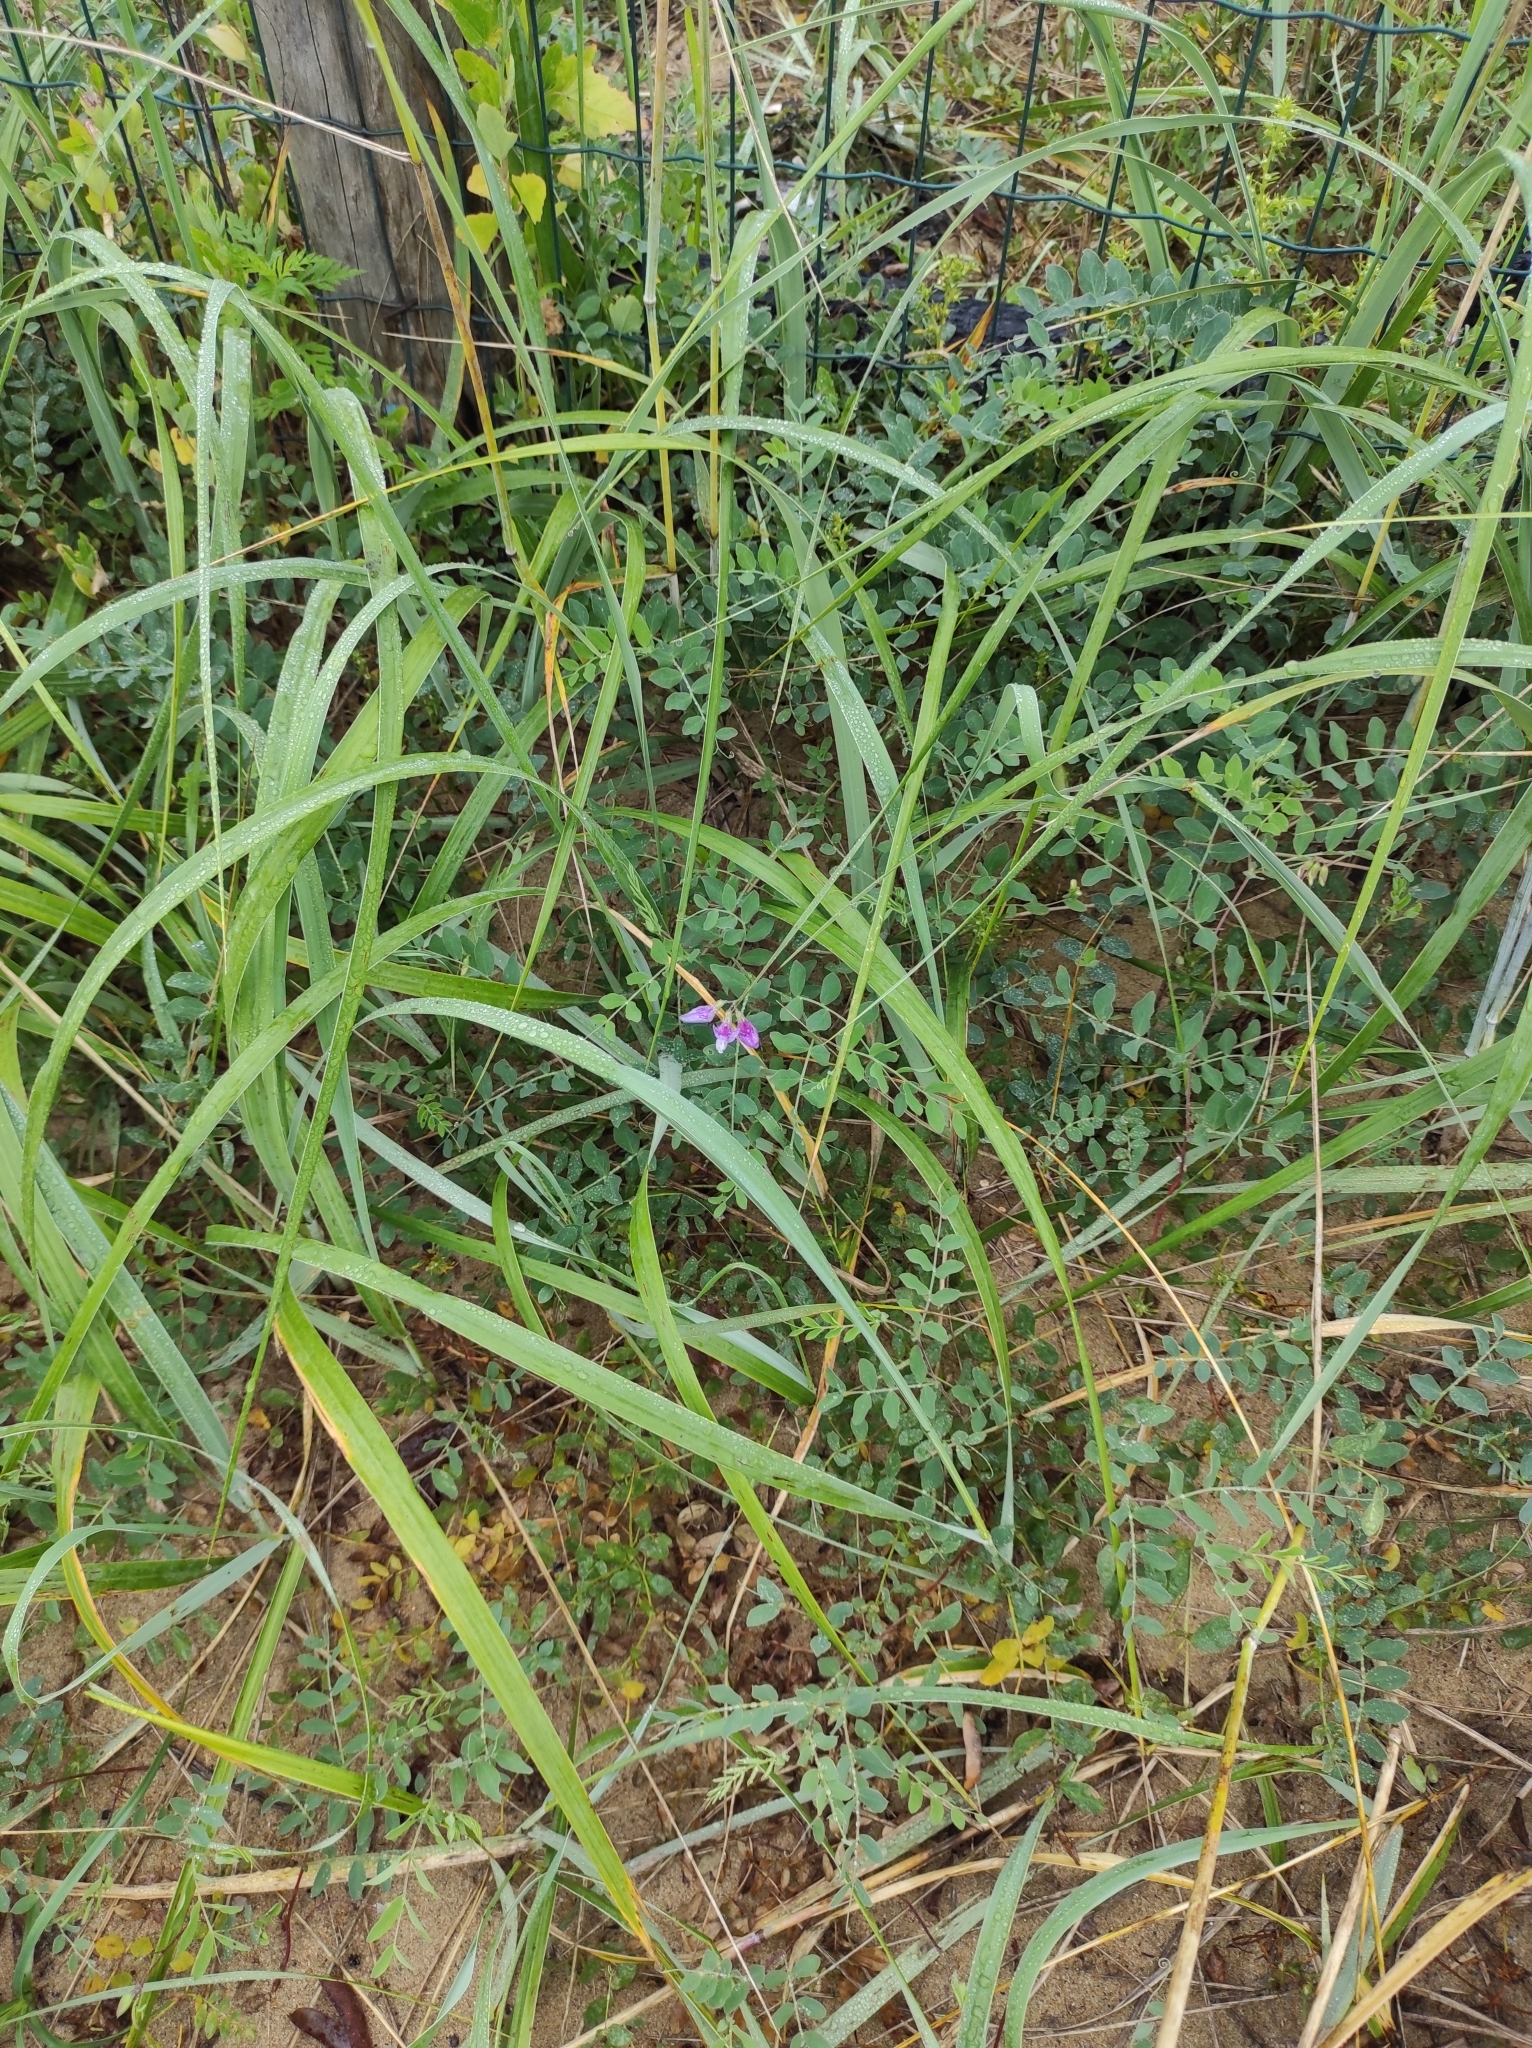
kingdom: Plantae
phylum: Tracheophyta
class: Magnoliopsida
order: Fabales
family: Fabaceae
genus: Lathyrus
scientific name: Lathyrus japonicus
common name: Sea pea
